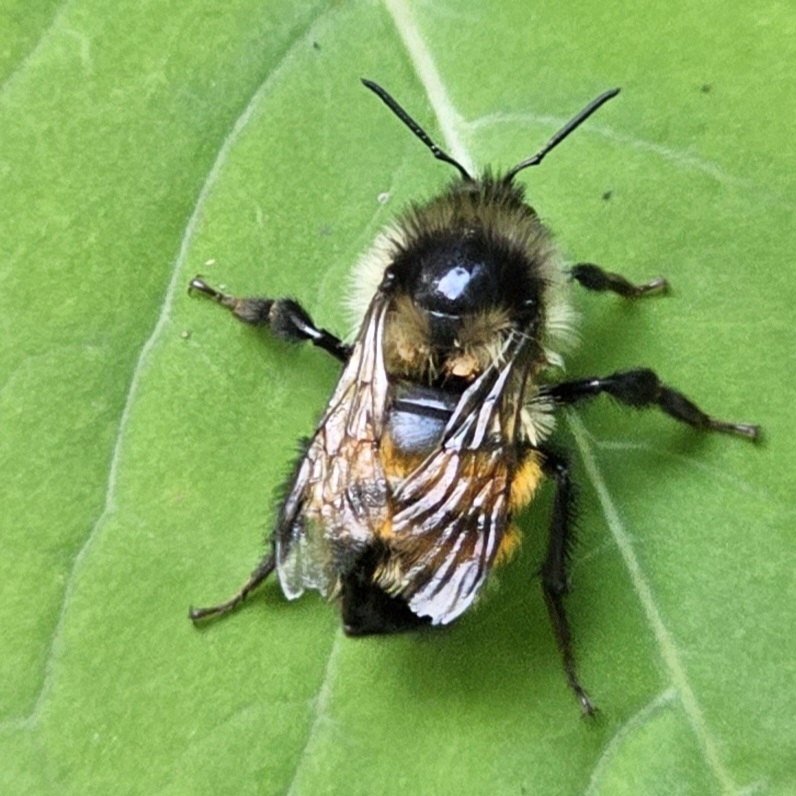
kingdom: Animalia
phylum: Arthropoda
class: Insecta
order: Hymenoptera
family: Apidae
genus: Bombus
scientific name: Bombus ternarius
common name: Tri-colored bumble bee
